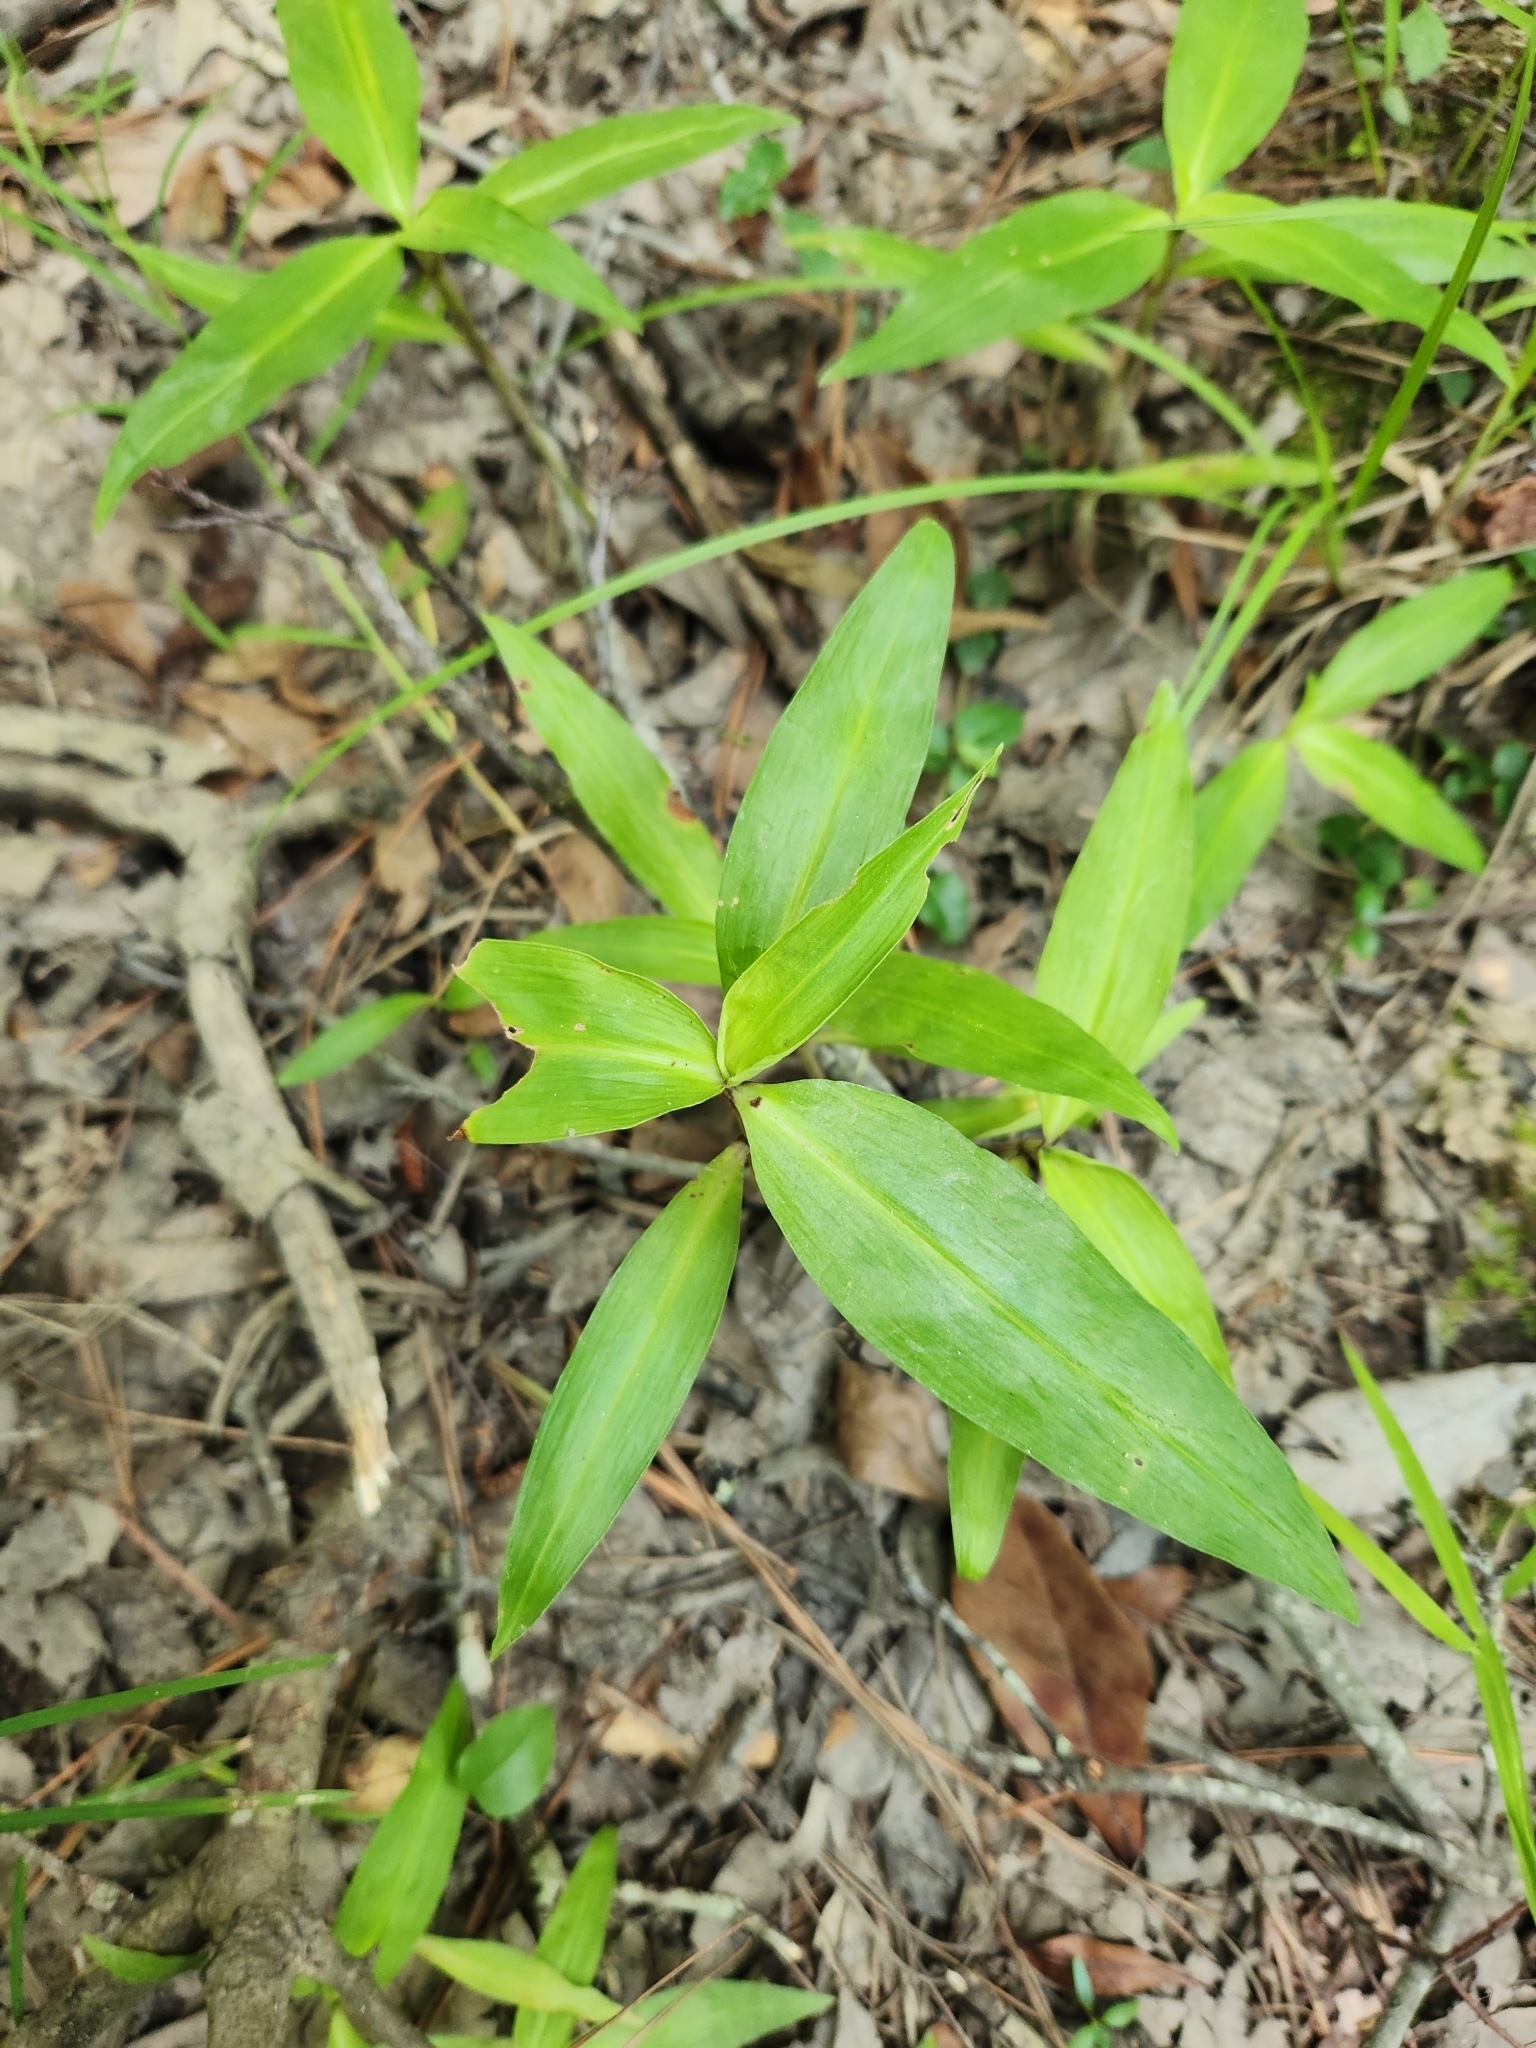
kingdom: Plantae
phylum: Tracheophyta
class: Liliopsida
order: Commelinales
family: Commelinaceae
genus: Commelina
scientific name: Commelina virginica
